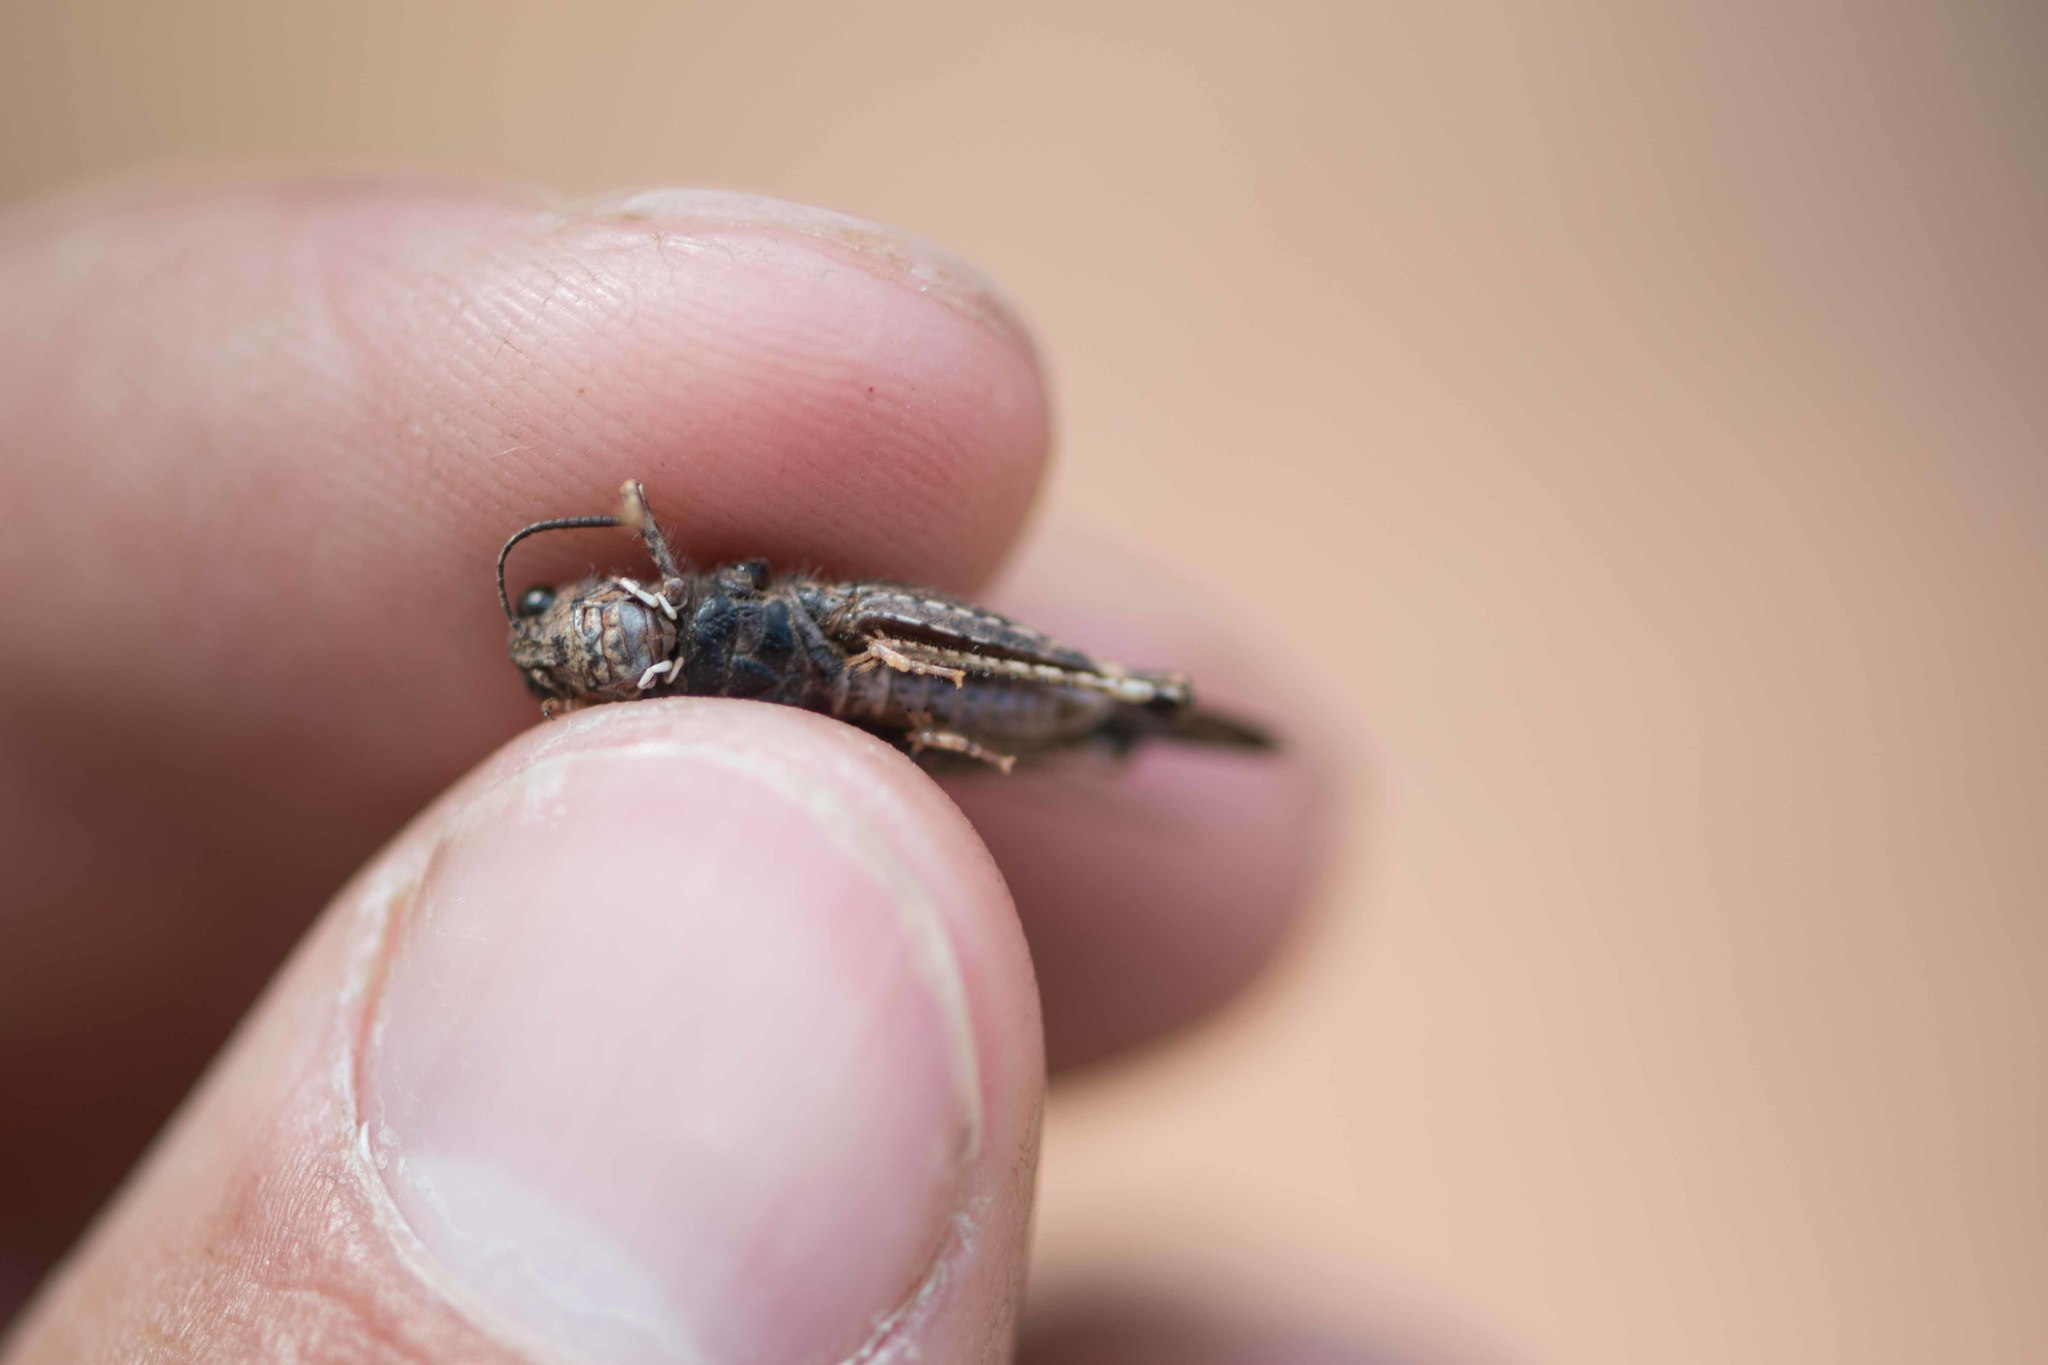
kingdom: Animalia
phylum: Arthropoda
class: Insecta
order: Orthoptera
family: Acrididae
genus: Acrotylus
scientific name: Acrotylus insubricus
